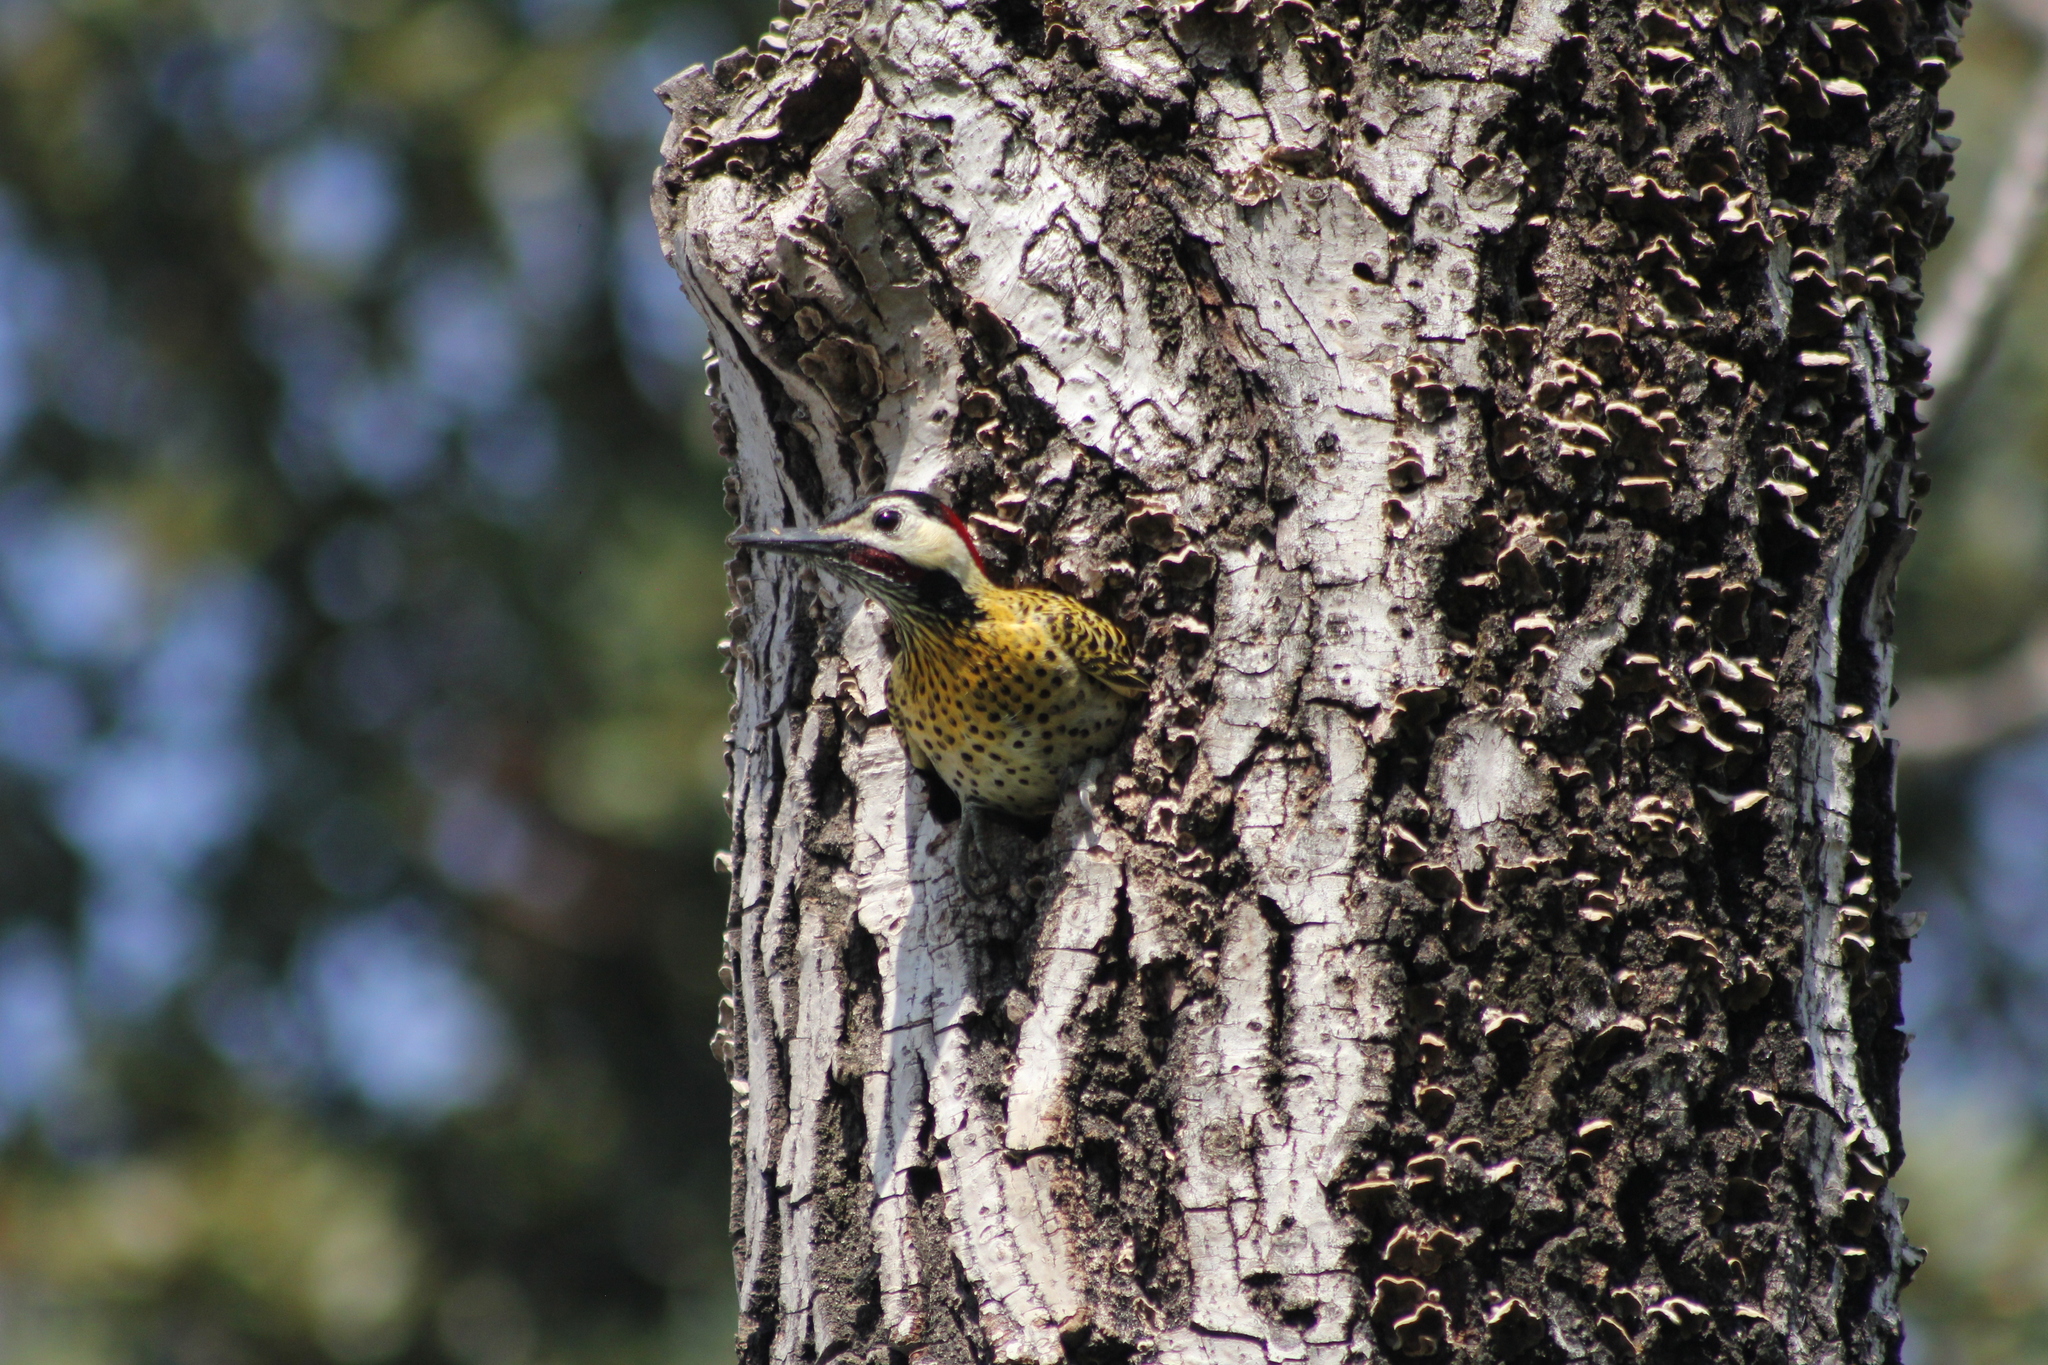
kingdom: Animalia
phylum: Chordata
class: Aves
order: Piciformes
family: Picidae
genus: Colaptes
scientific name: Colaptes melanochloros
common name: Green-barred woodpecker
